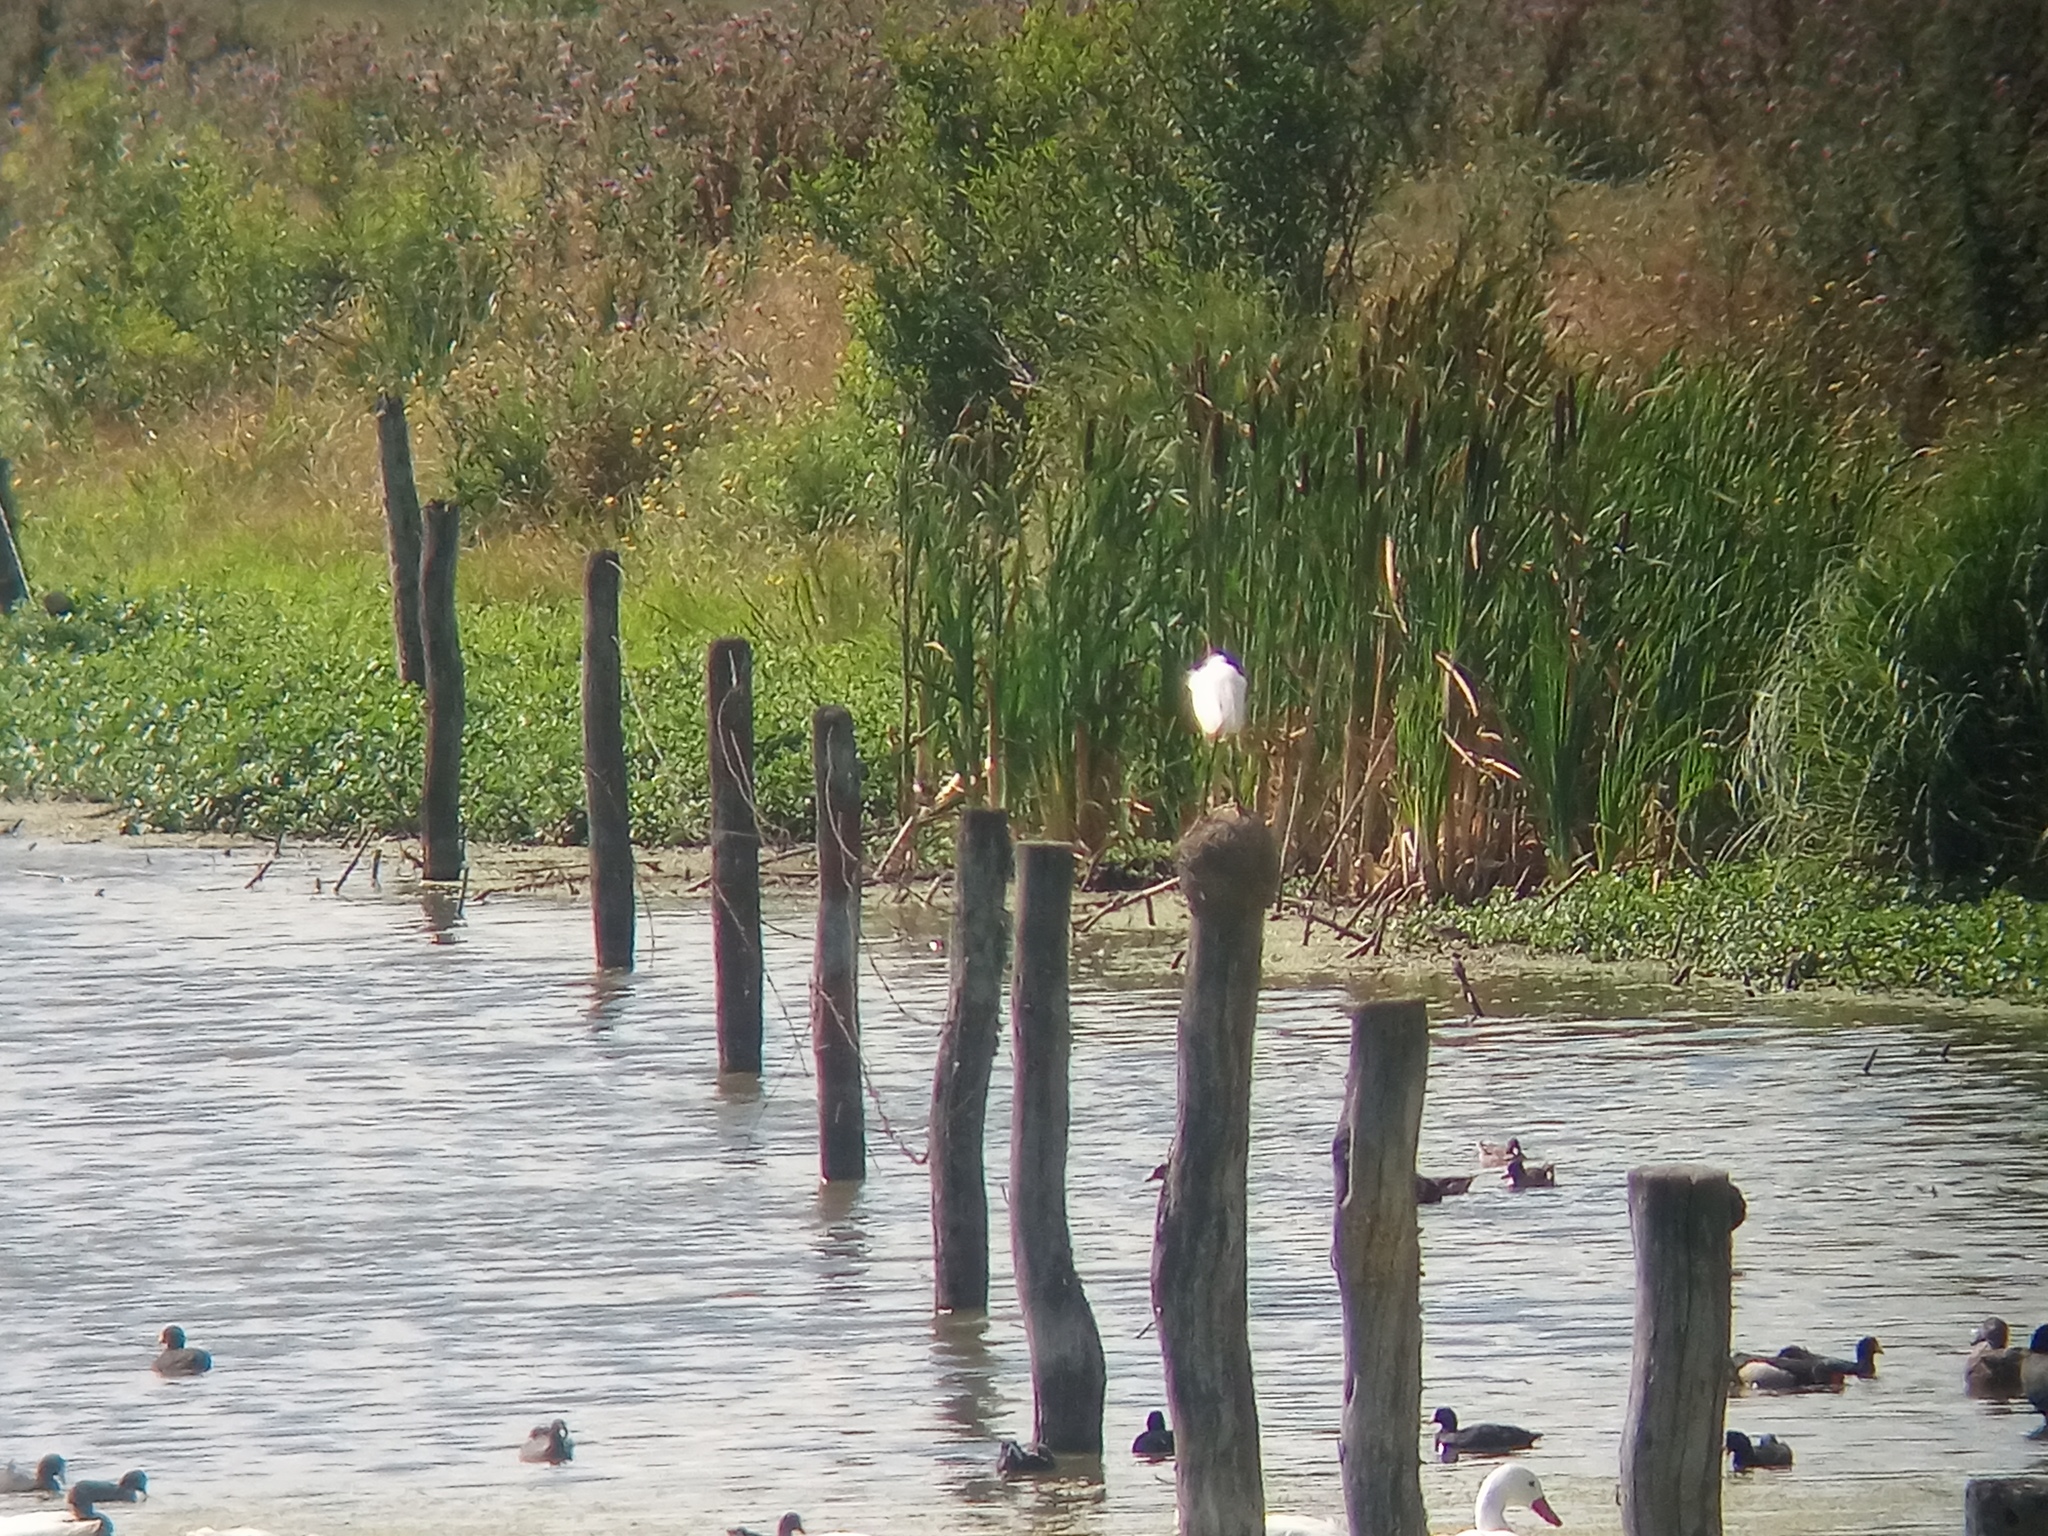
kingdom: Animalia
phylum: Chordata
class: Aves
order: Pelecaniformes
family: Ardeidae
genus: Egretta
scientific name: Egretta thula
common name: Snowy egret
